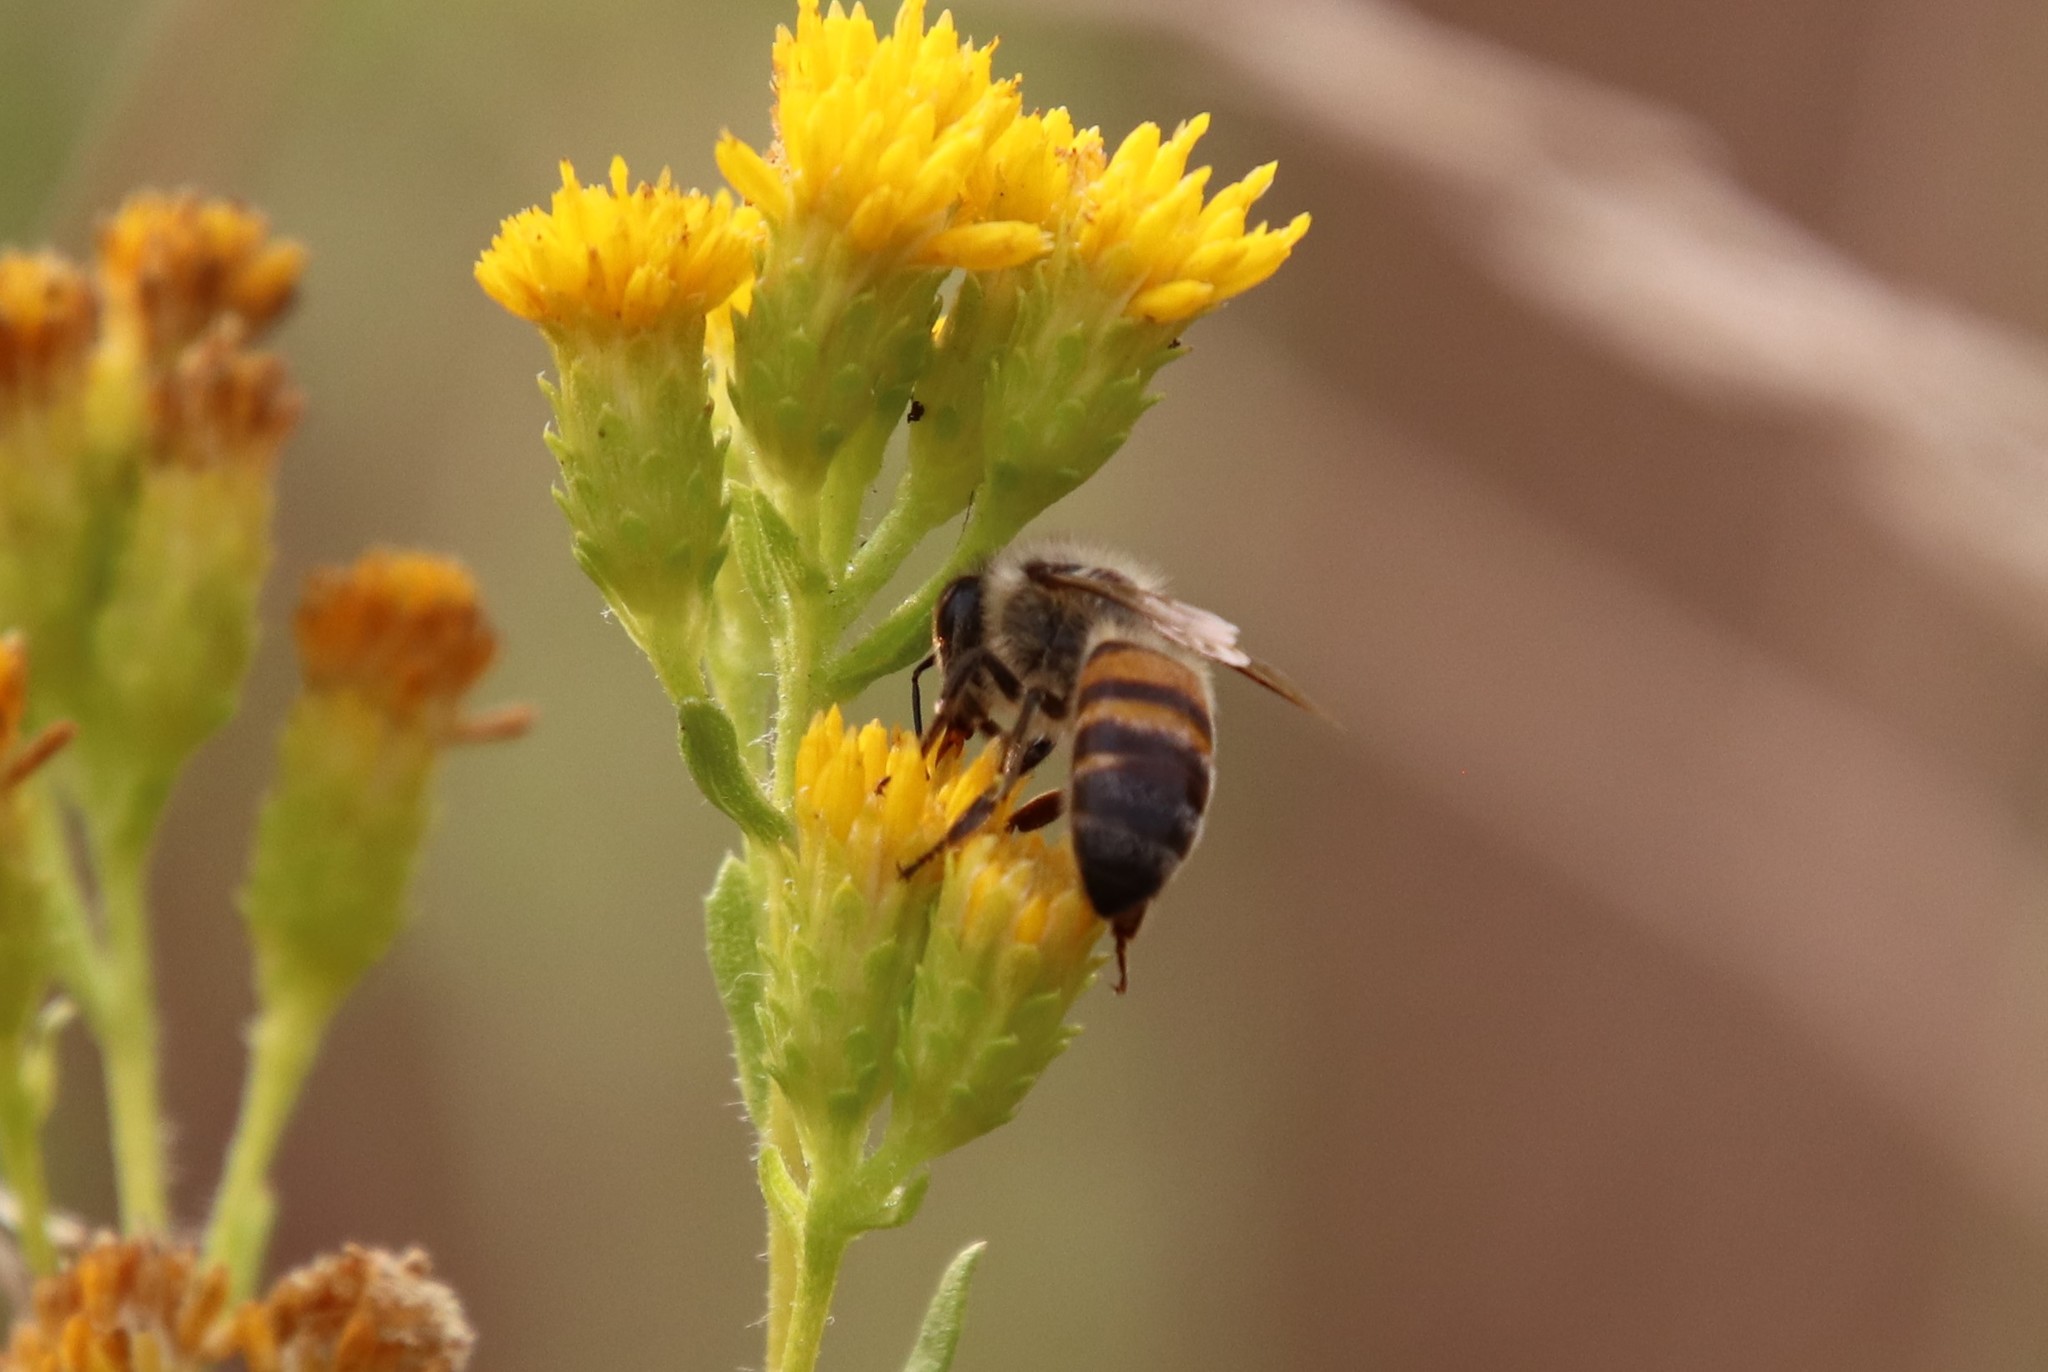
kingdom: Animalia
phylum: Arthropoda
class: Insecta
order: Hymenoptera
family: Apidae
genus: Apis
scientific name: Apis mellifera
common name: Honey bee
